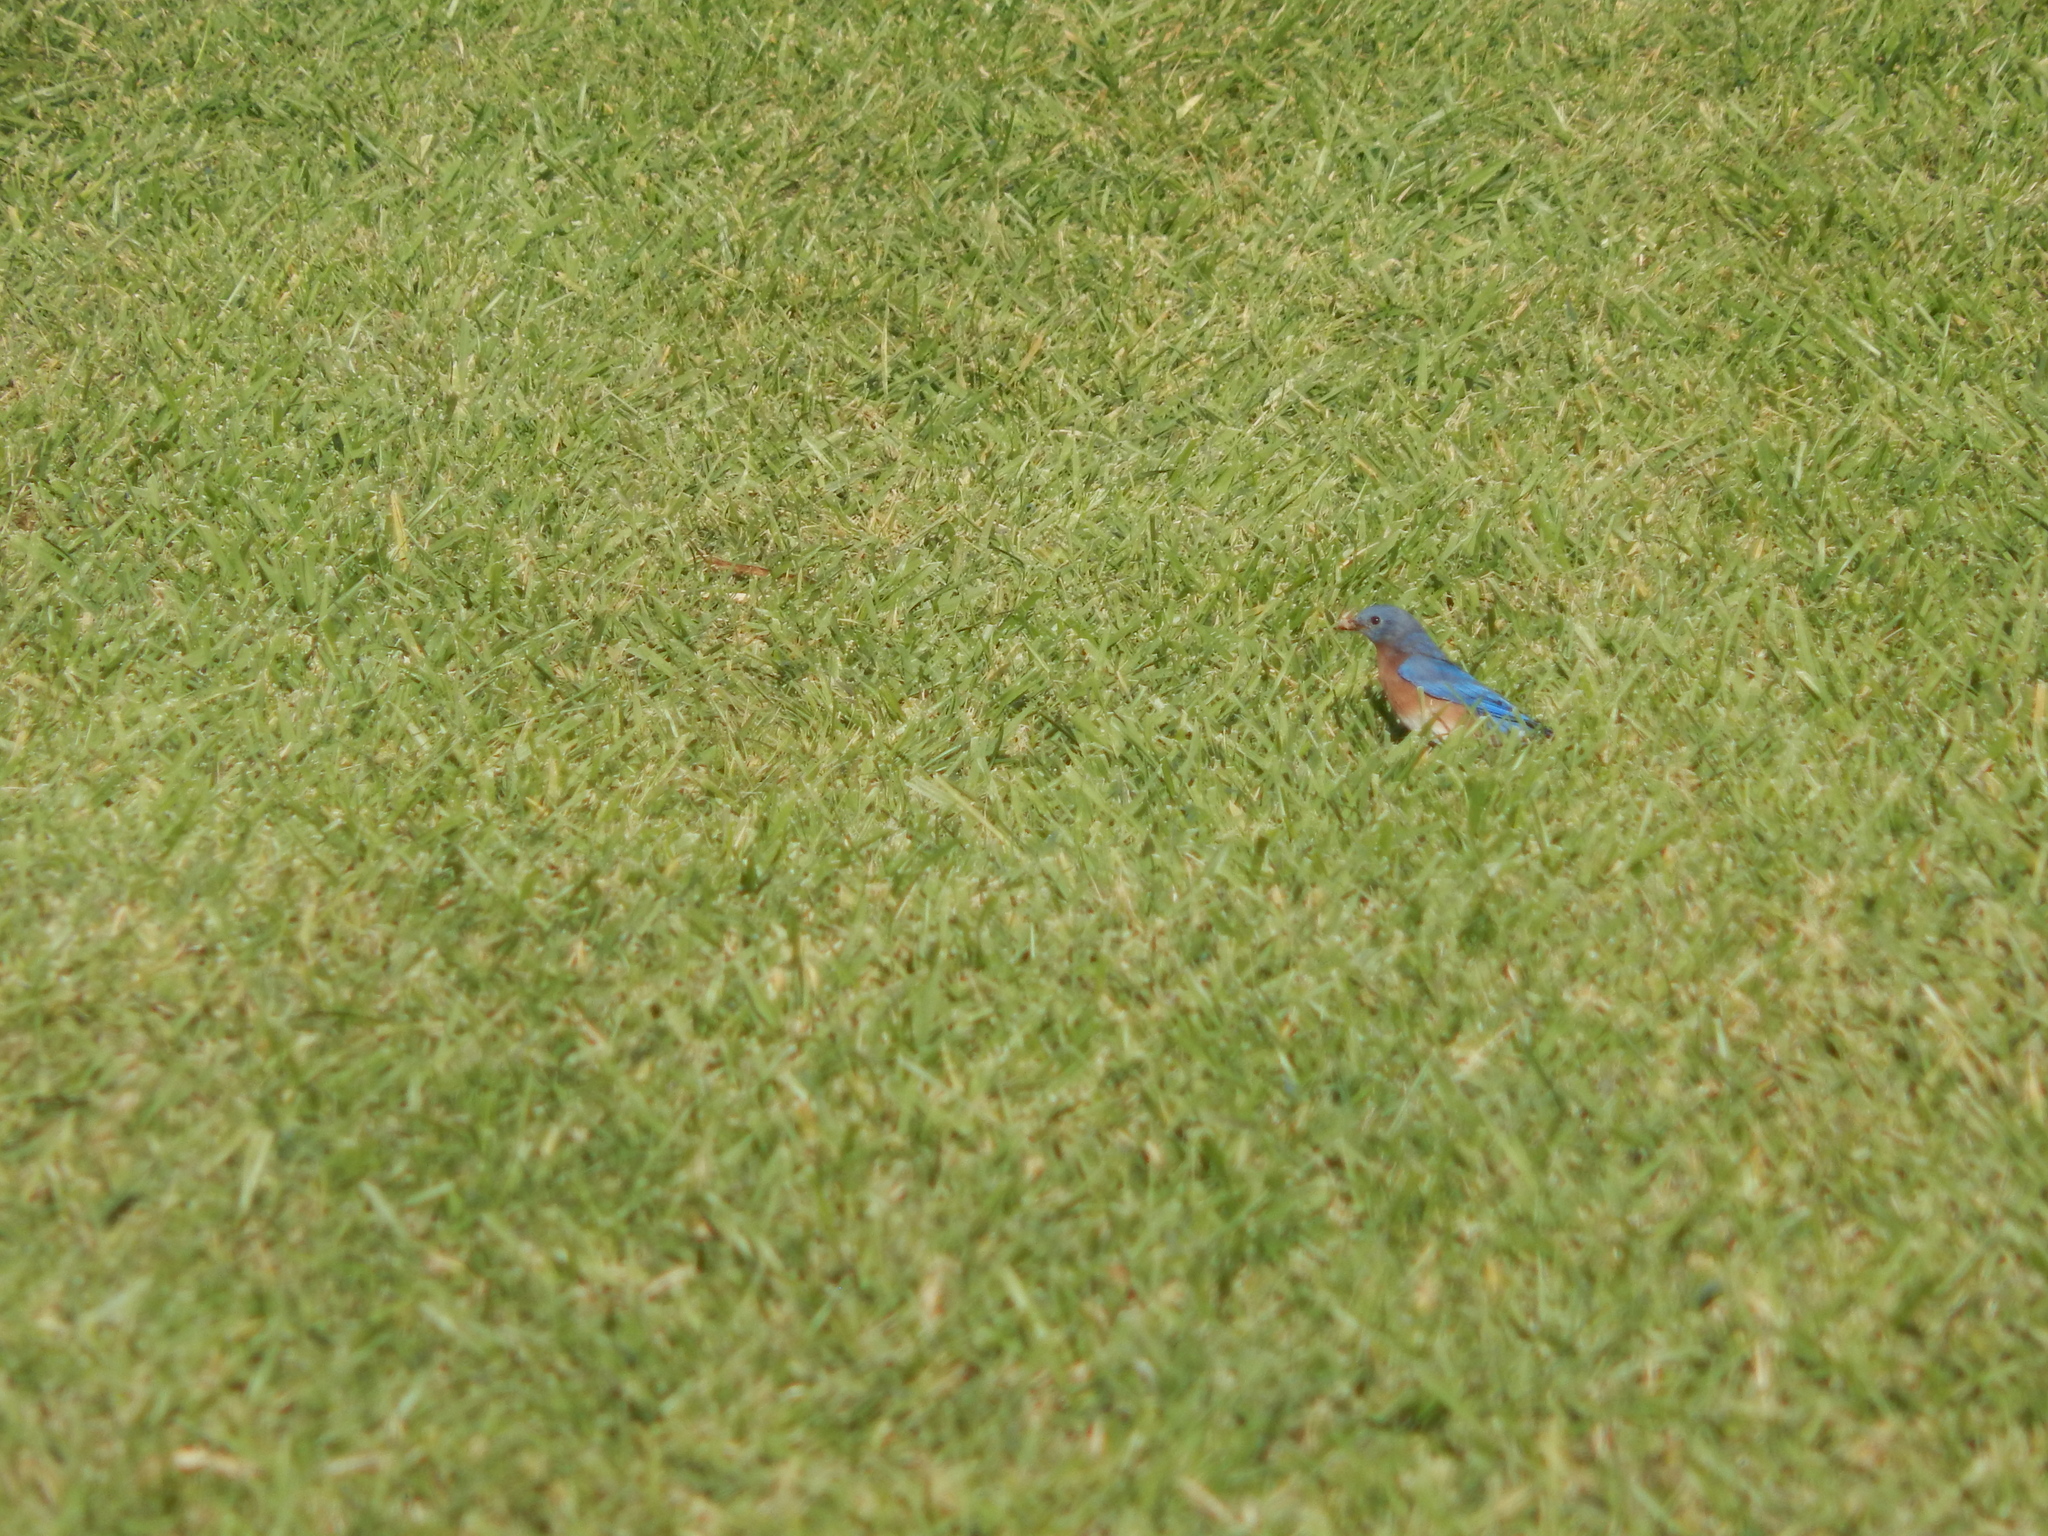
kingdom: Animalia
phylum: Chordata
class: Aves
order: Passeriformes
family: Turdidae
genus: Sialia
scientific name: Sialia sialis
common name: Eastern bluebird
